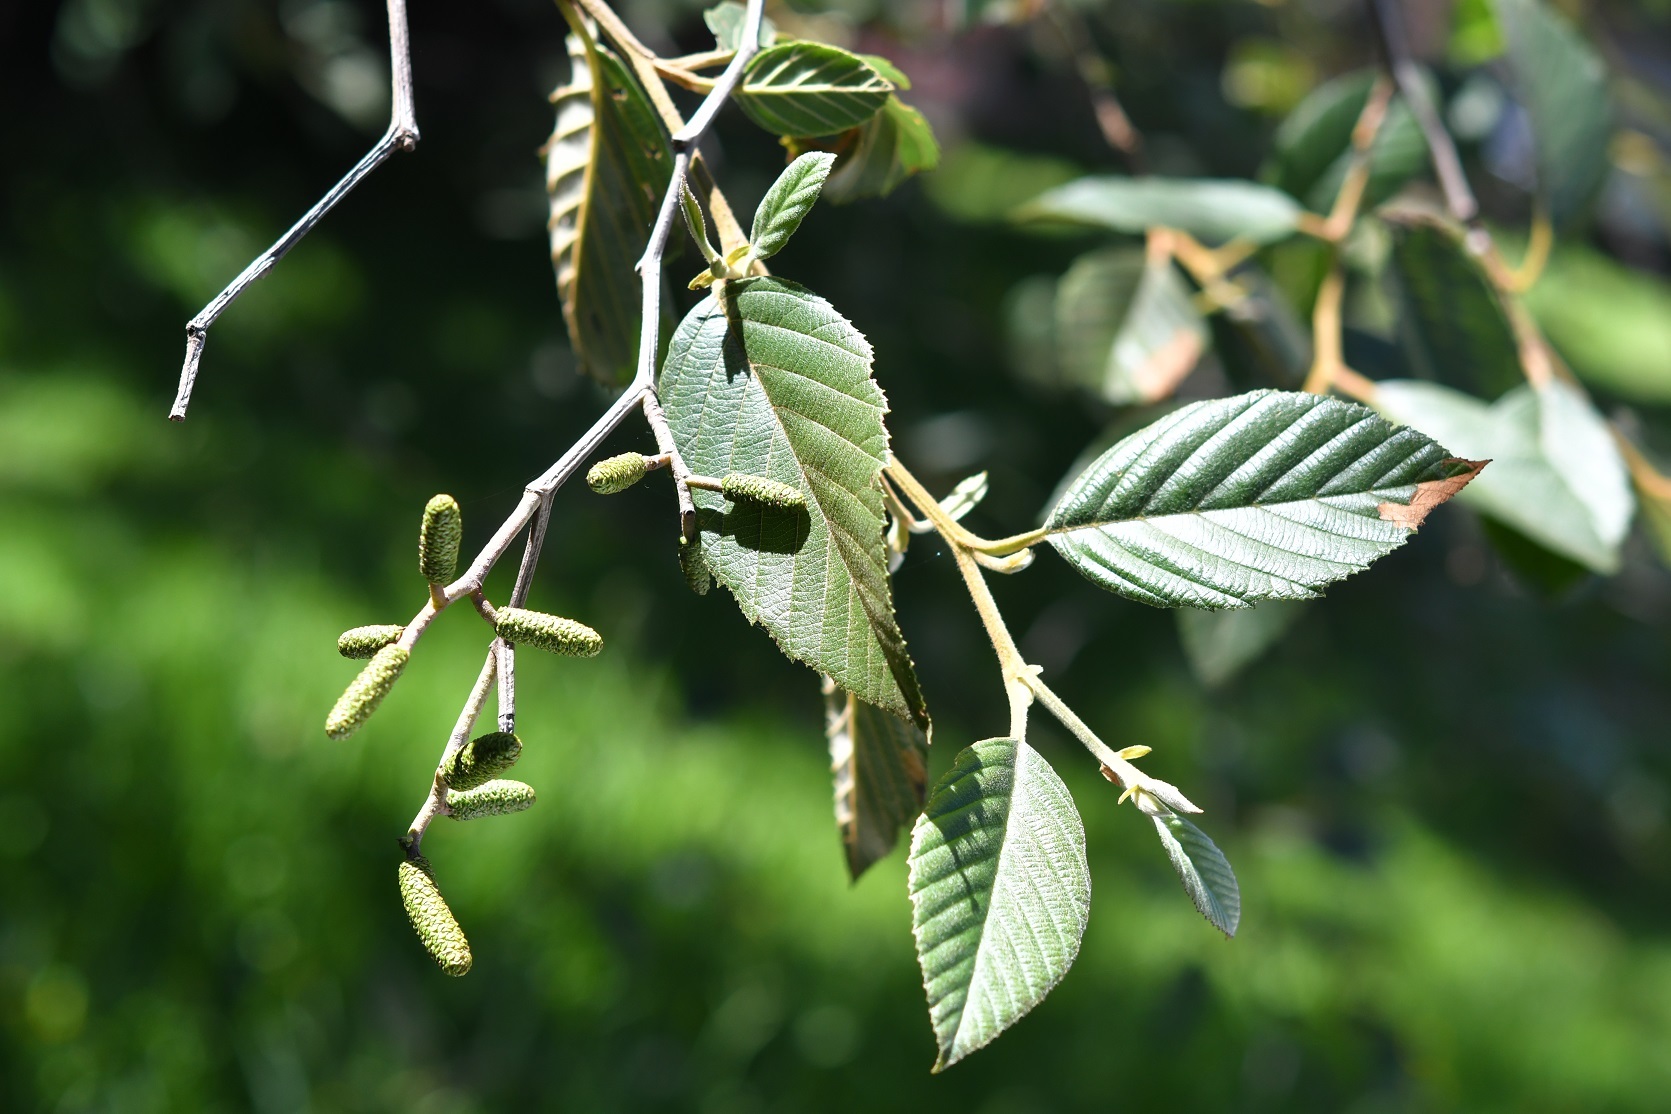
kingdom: Plantae
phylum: Tracheophyta
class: Magnoliopsida
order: Fagales
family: Betulaceae
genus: Alnus
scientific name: Alnus acuminata
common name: Alder
